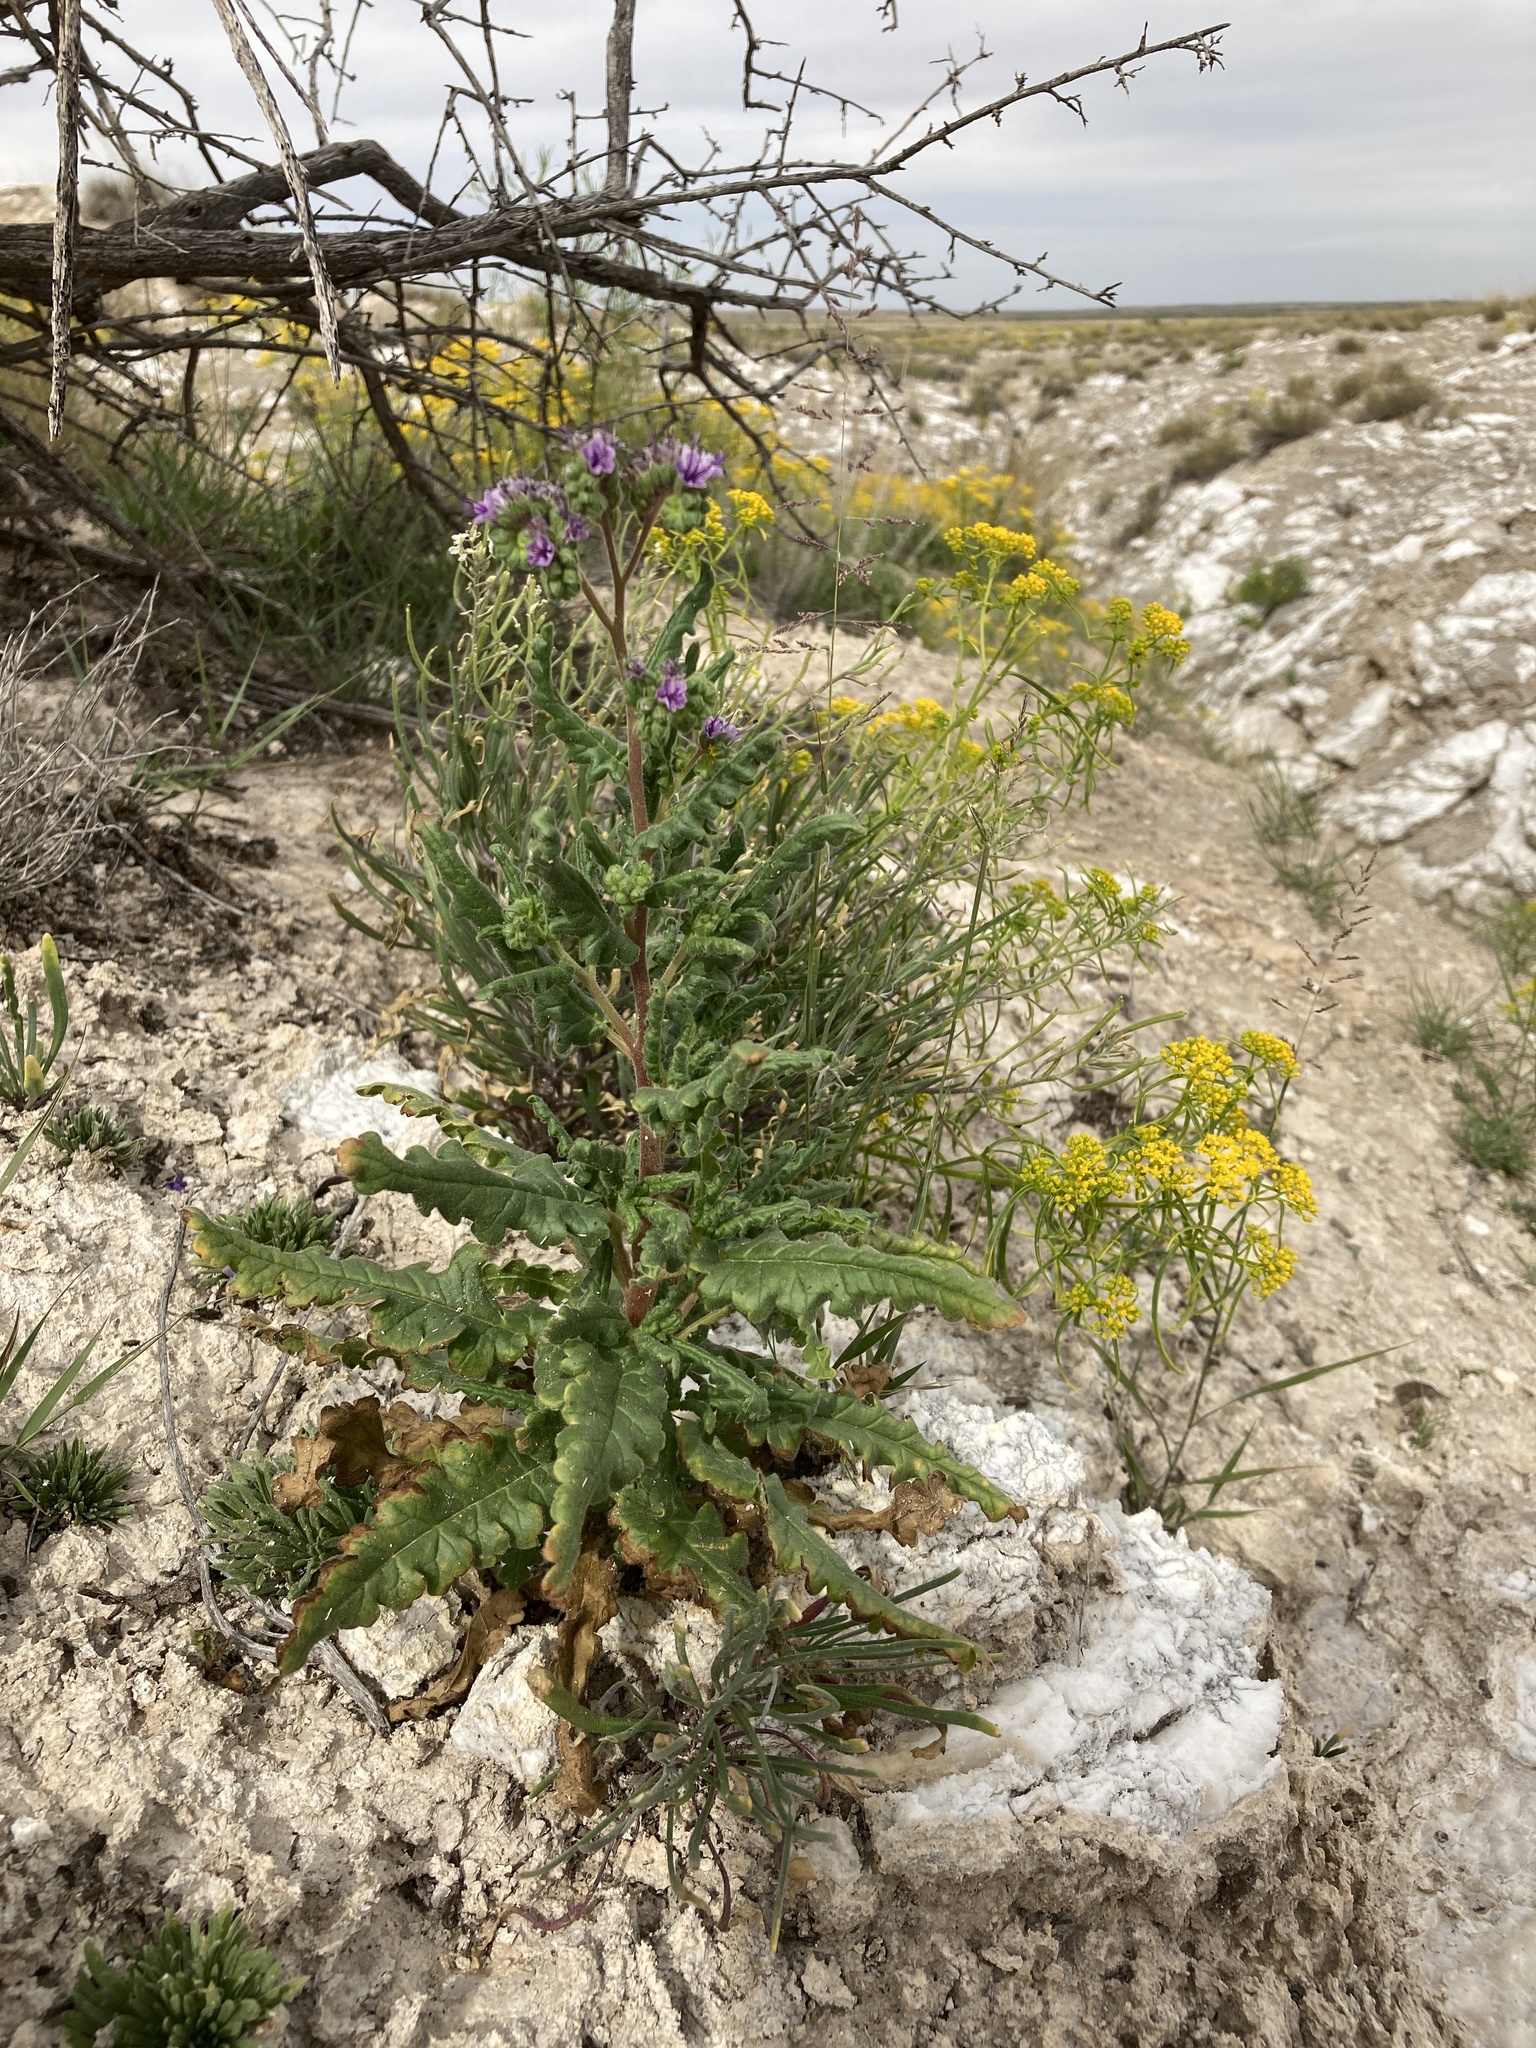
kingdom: Plantae
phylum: Tracheophyta
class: Magnoliopsida
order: Boraginales
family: Hydrophyllaceae
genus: Phacelia
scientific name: Phacelia integrifolia
